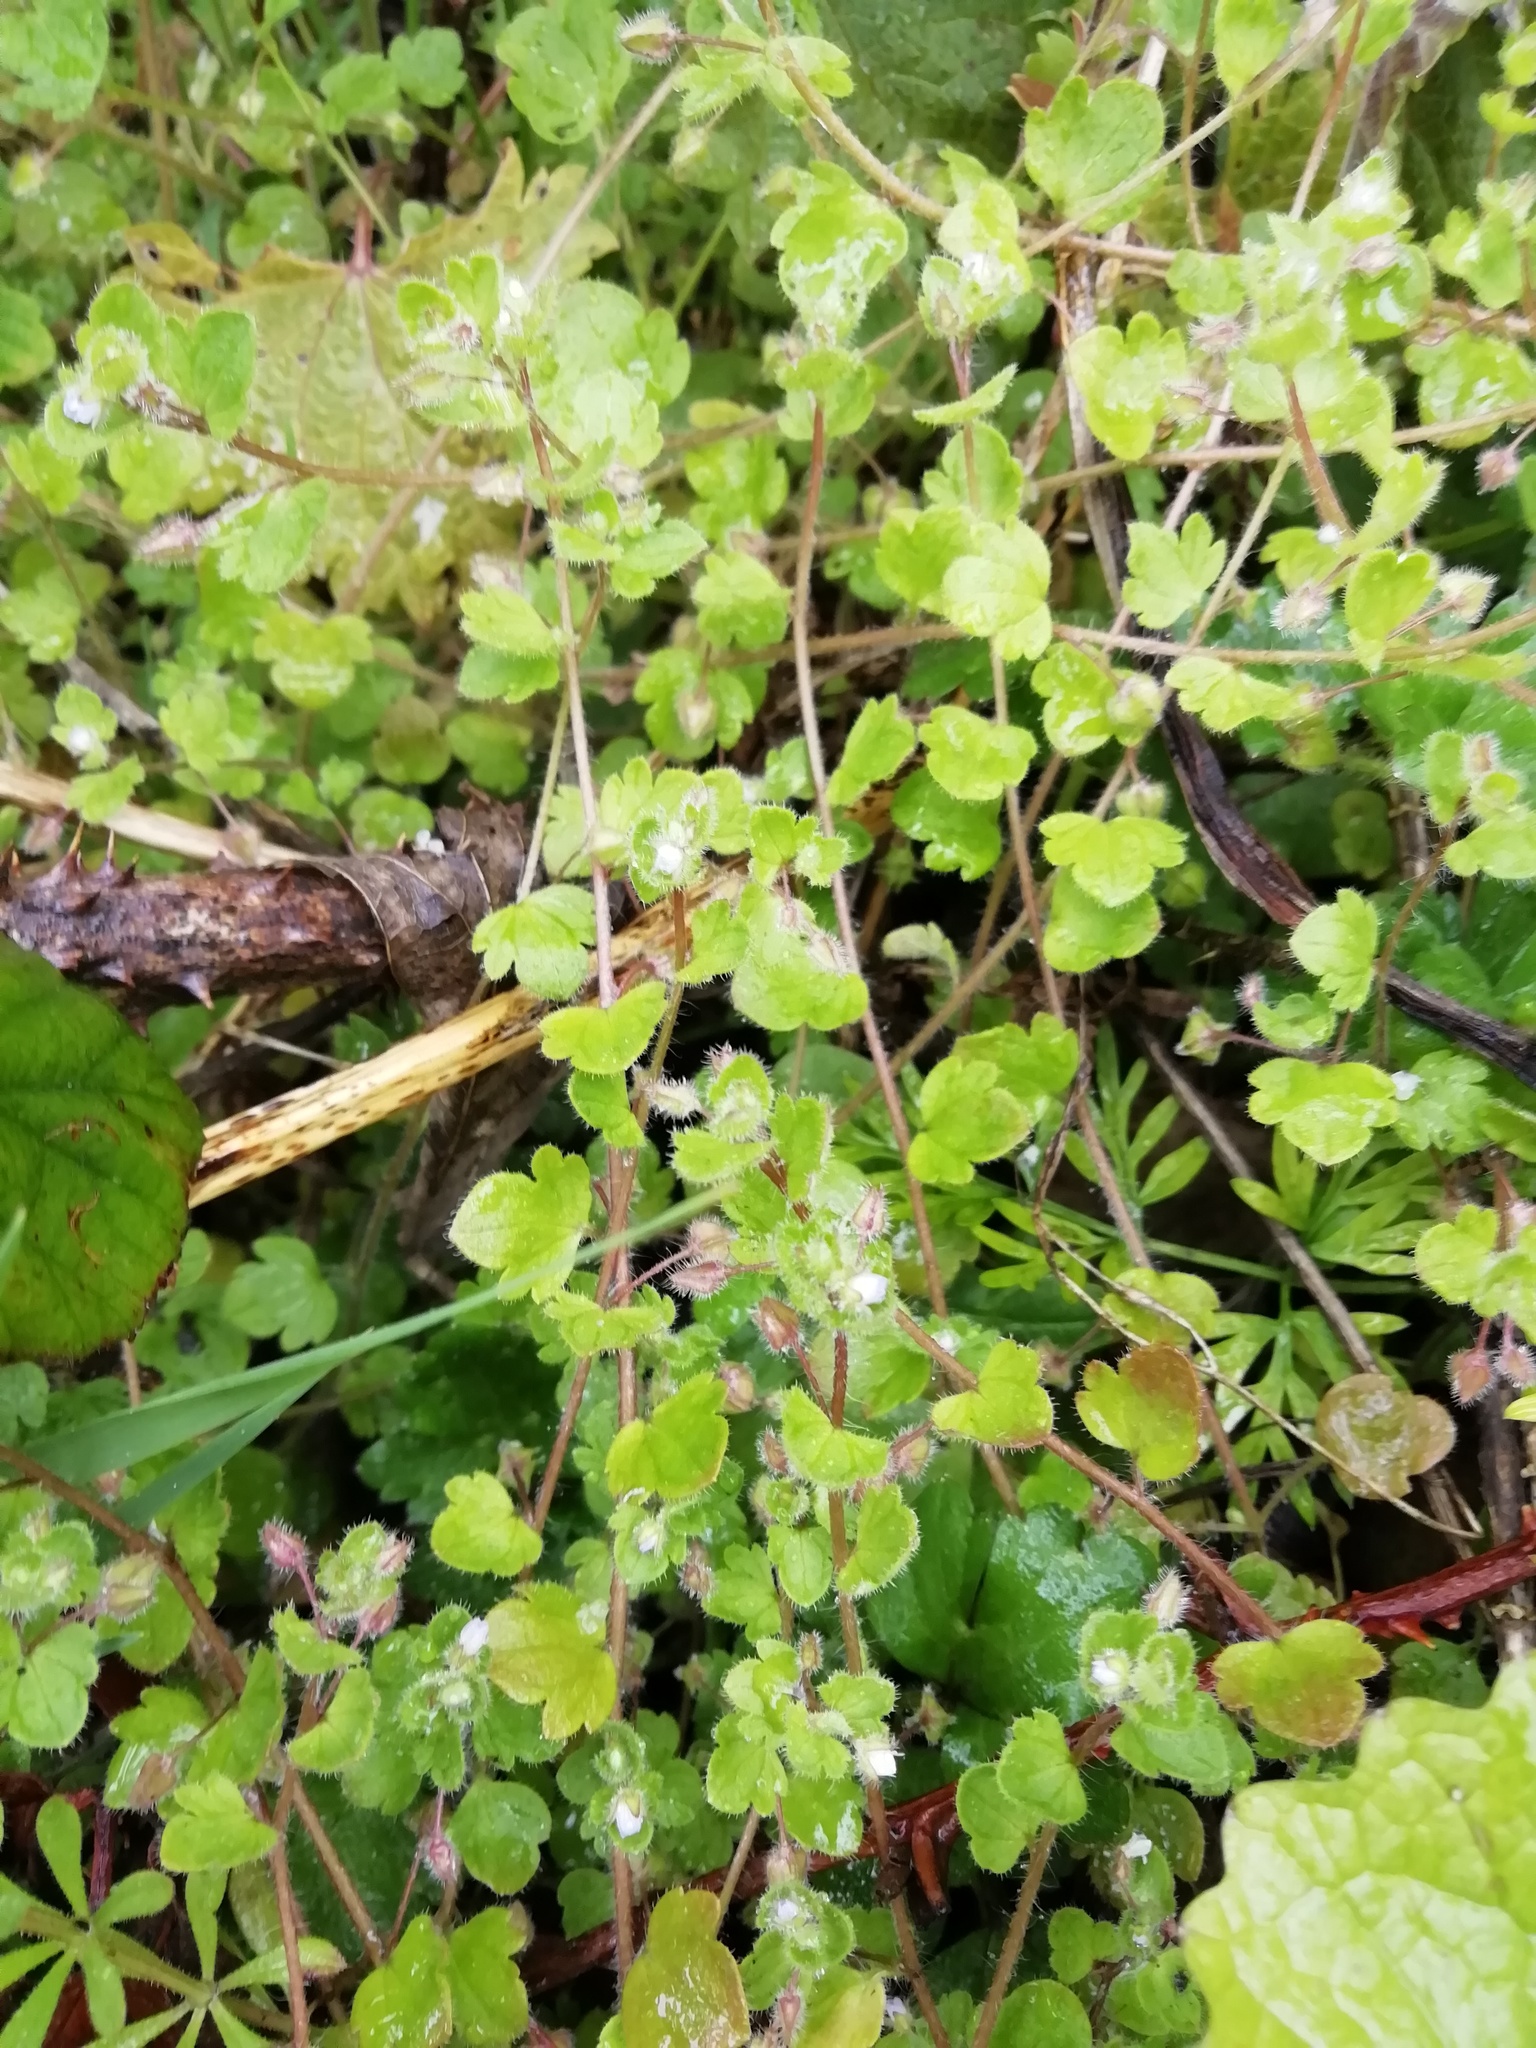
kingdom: Plantae
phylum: Tracheophyta
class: Magnoliopsida
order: Lamiales
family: Plantaginaceae
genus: Veronica
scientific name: Veronica sublobata
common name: False ivy-leaved speedwell
